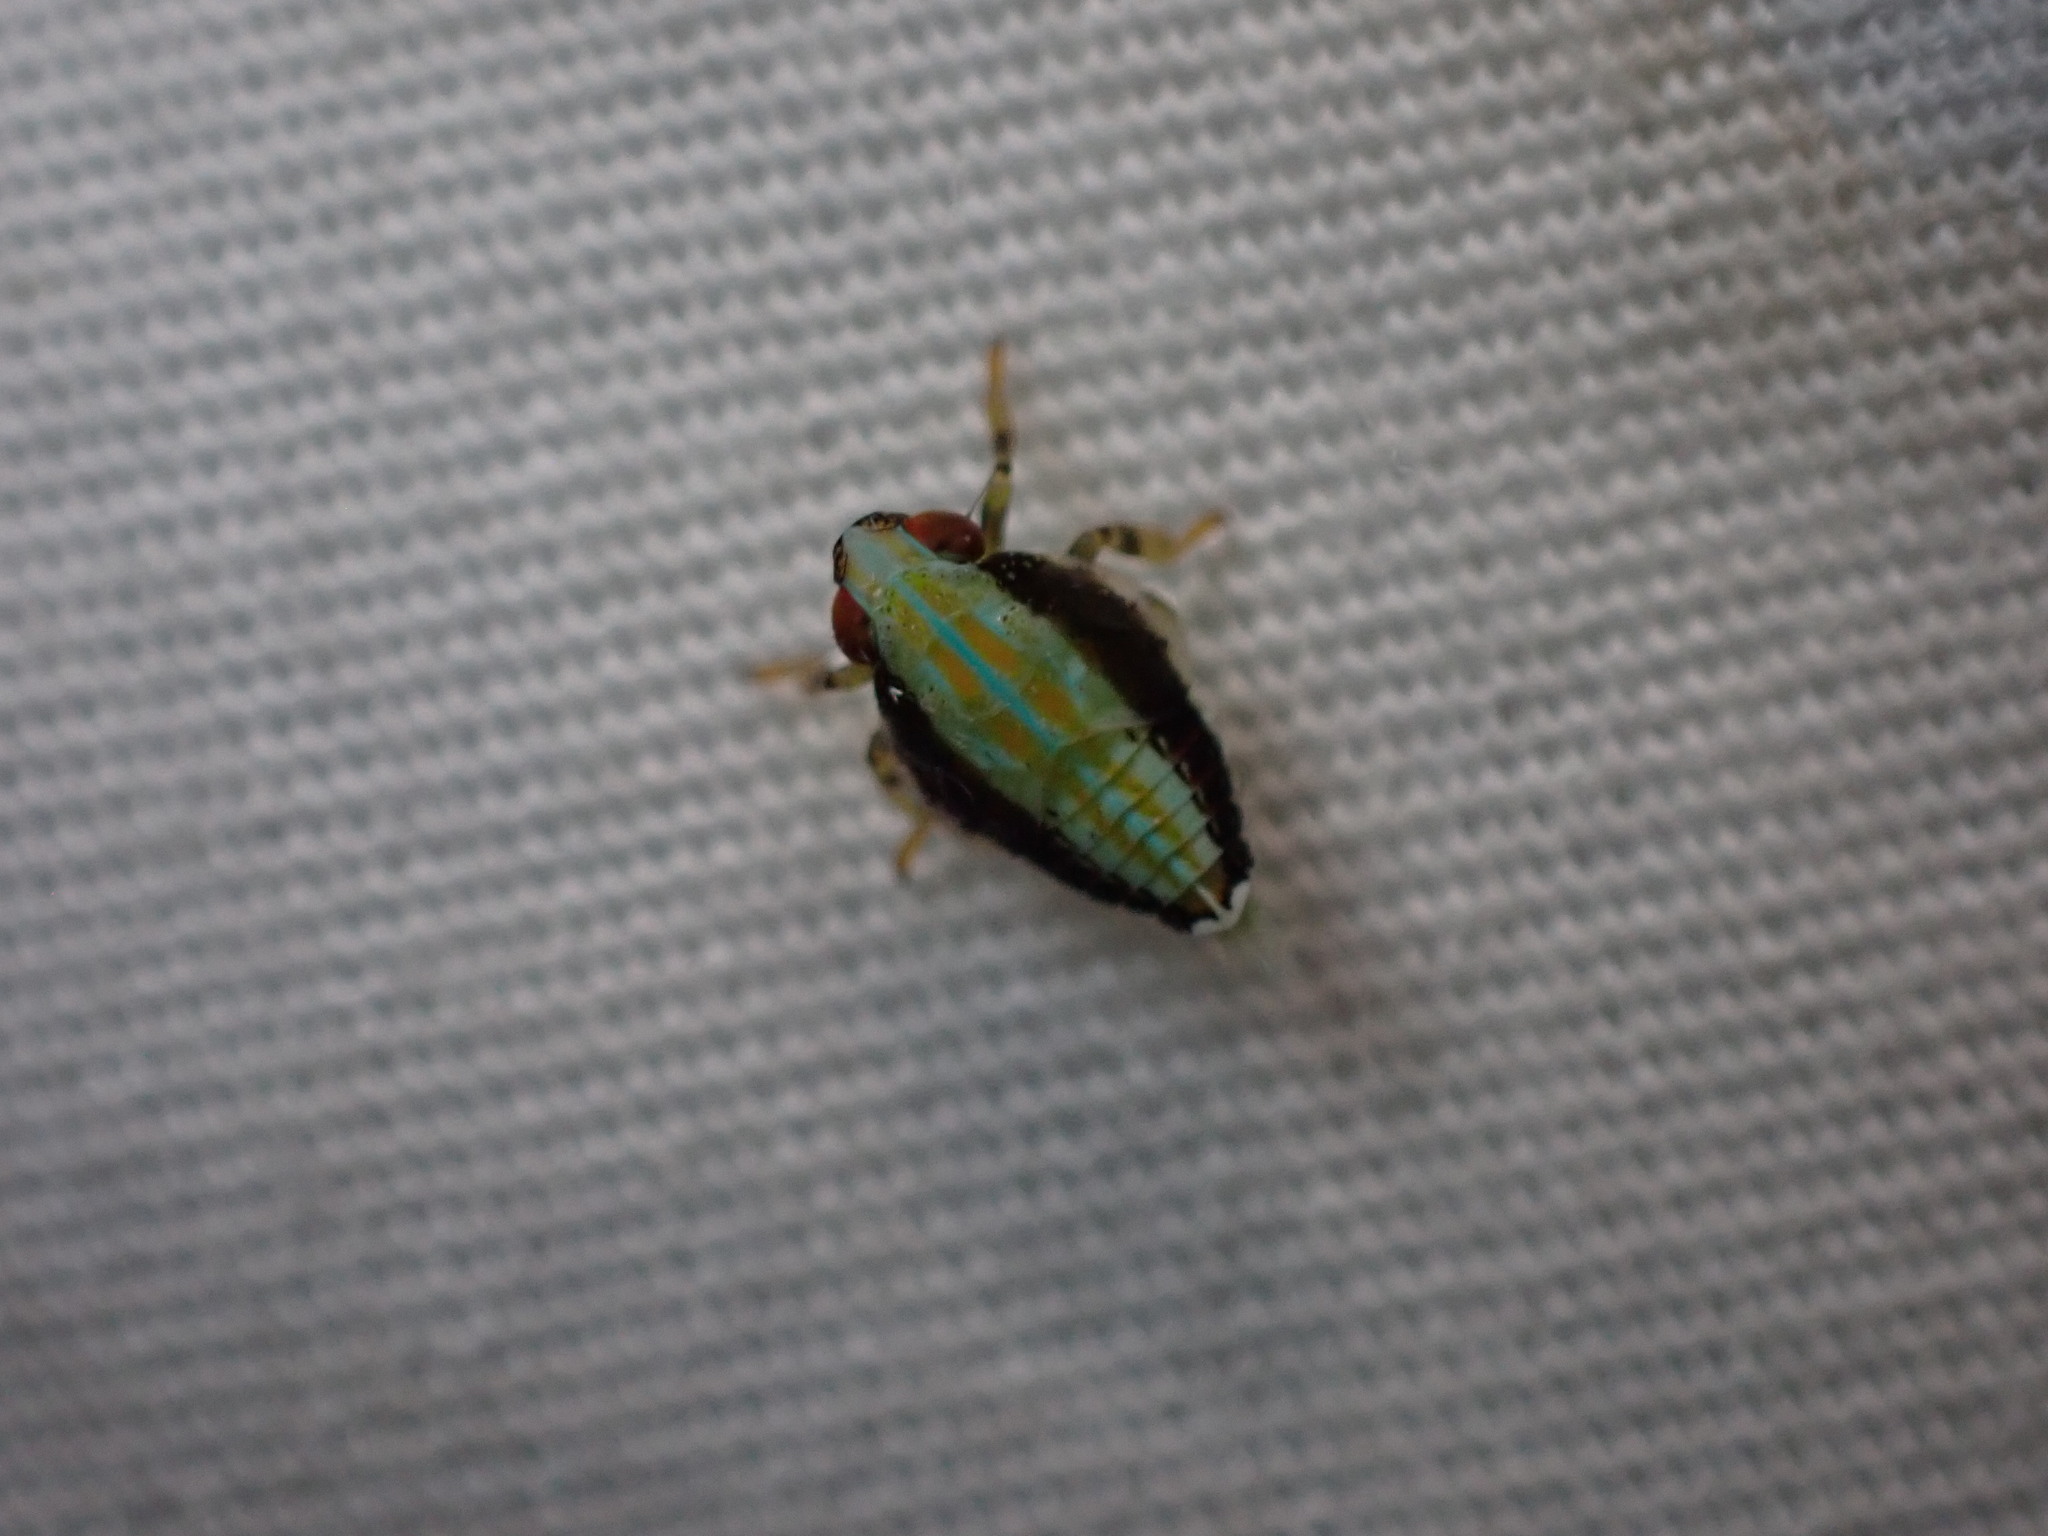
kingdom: Animalia
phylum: Arthropoda
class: Insecta
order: Hemiptera
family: Issidae
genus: Thionia
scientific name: Thionia bullata
